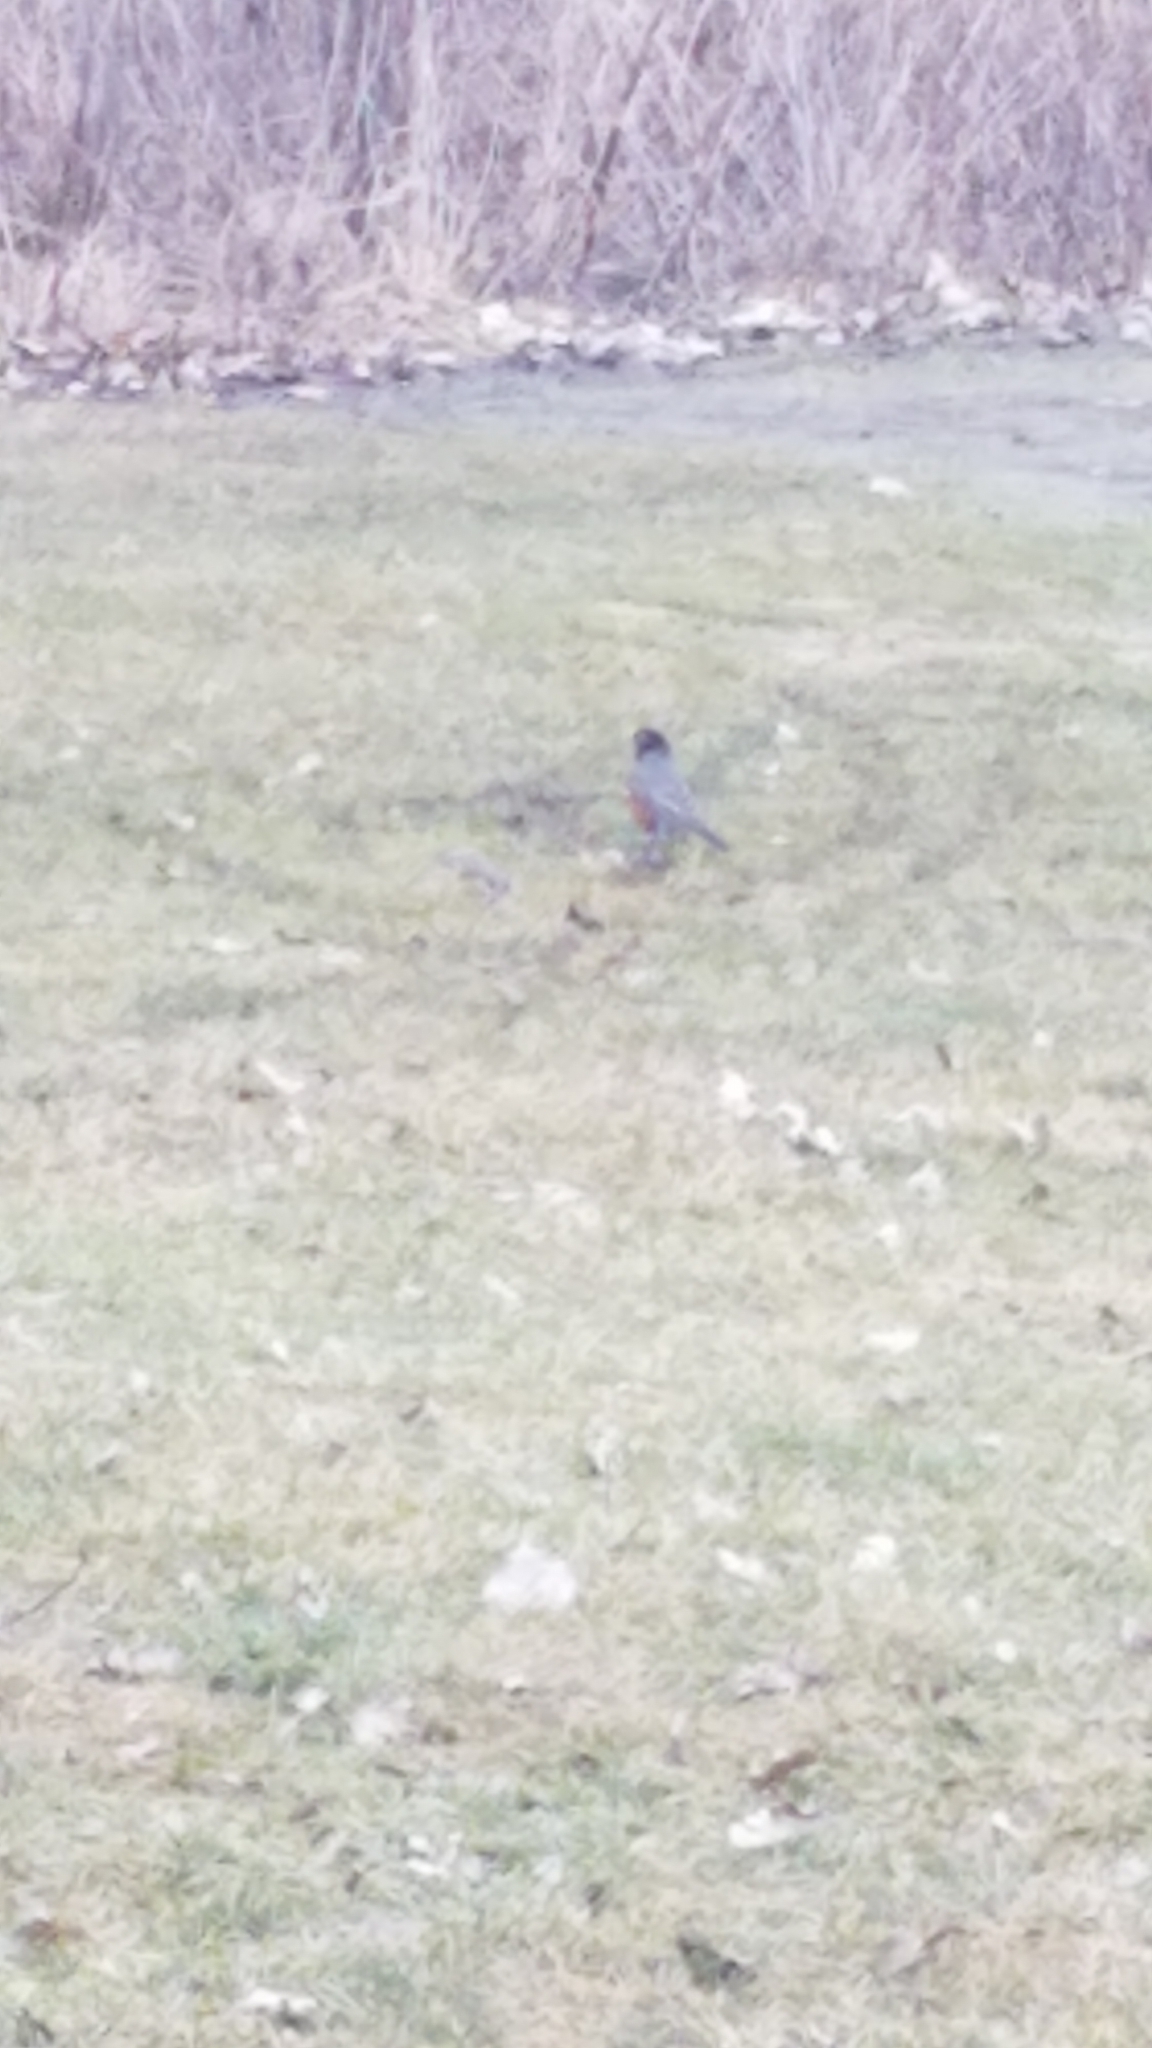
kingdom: Animalia
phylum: Chordata
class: Aves
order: Passeriformes
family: Turdidae
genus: Turdus
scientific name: Turdus migratorius
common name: American robin
